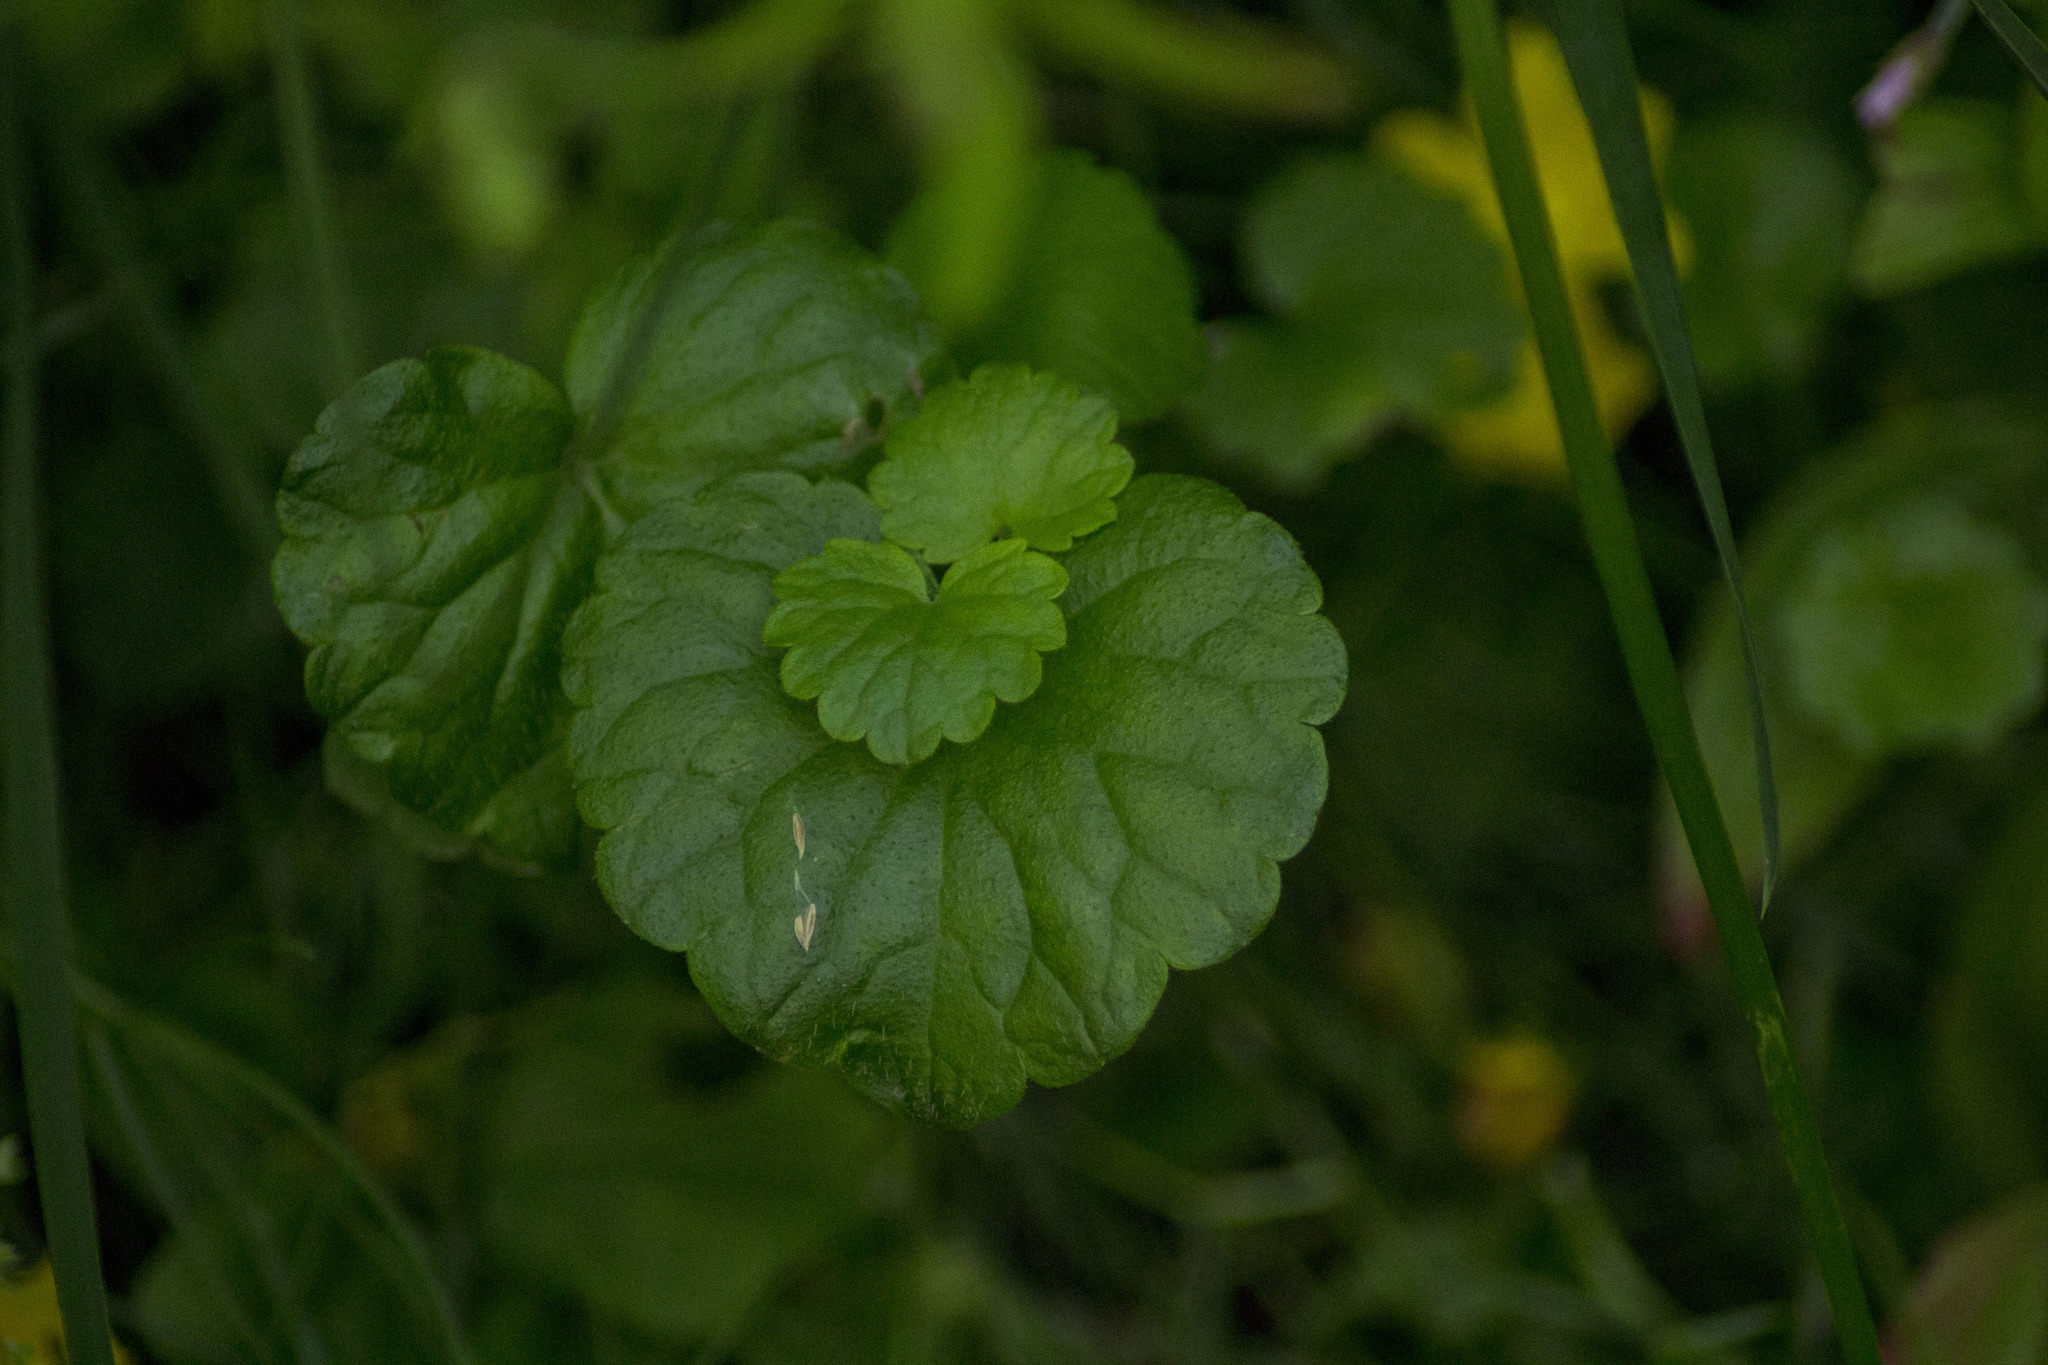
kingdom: Plantae
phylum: Tracheophyta
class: Magnoliopsida
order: Lamiales
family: Lamiaceae
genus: Glechoma
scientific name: Glechoma hederacea
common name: Ground ivy
